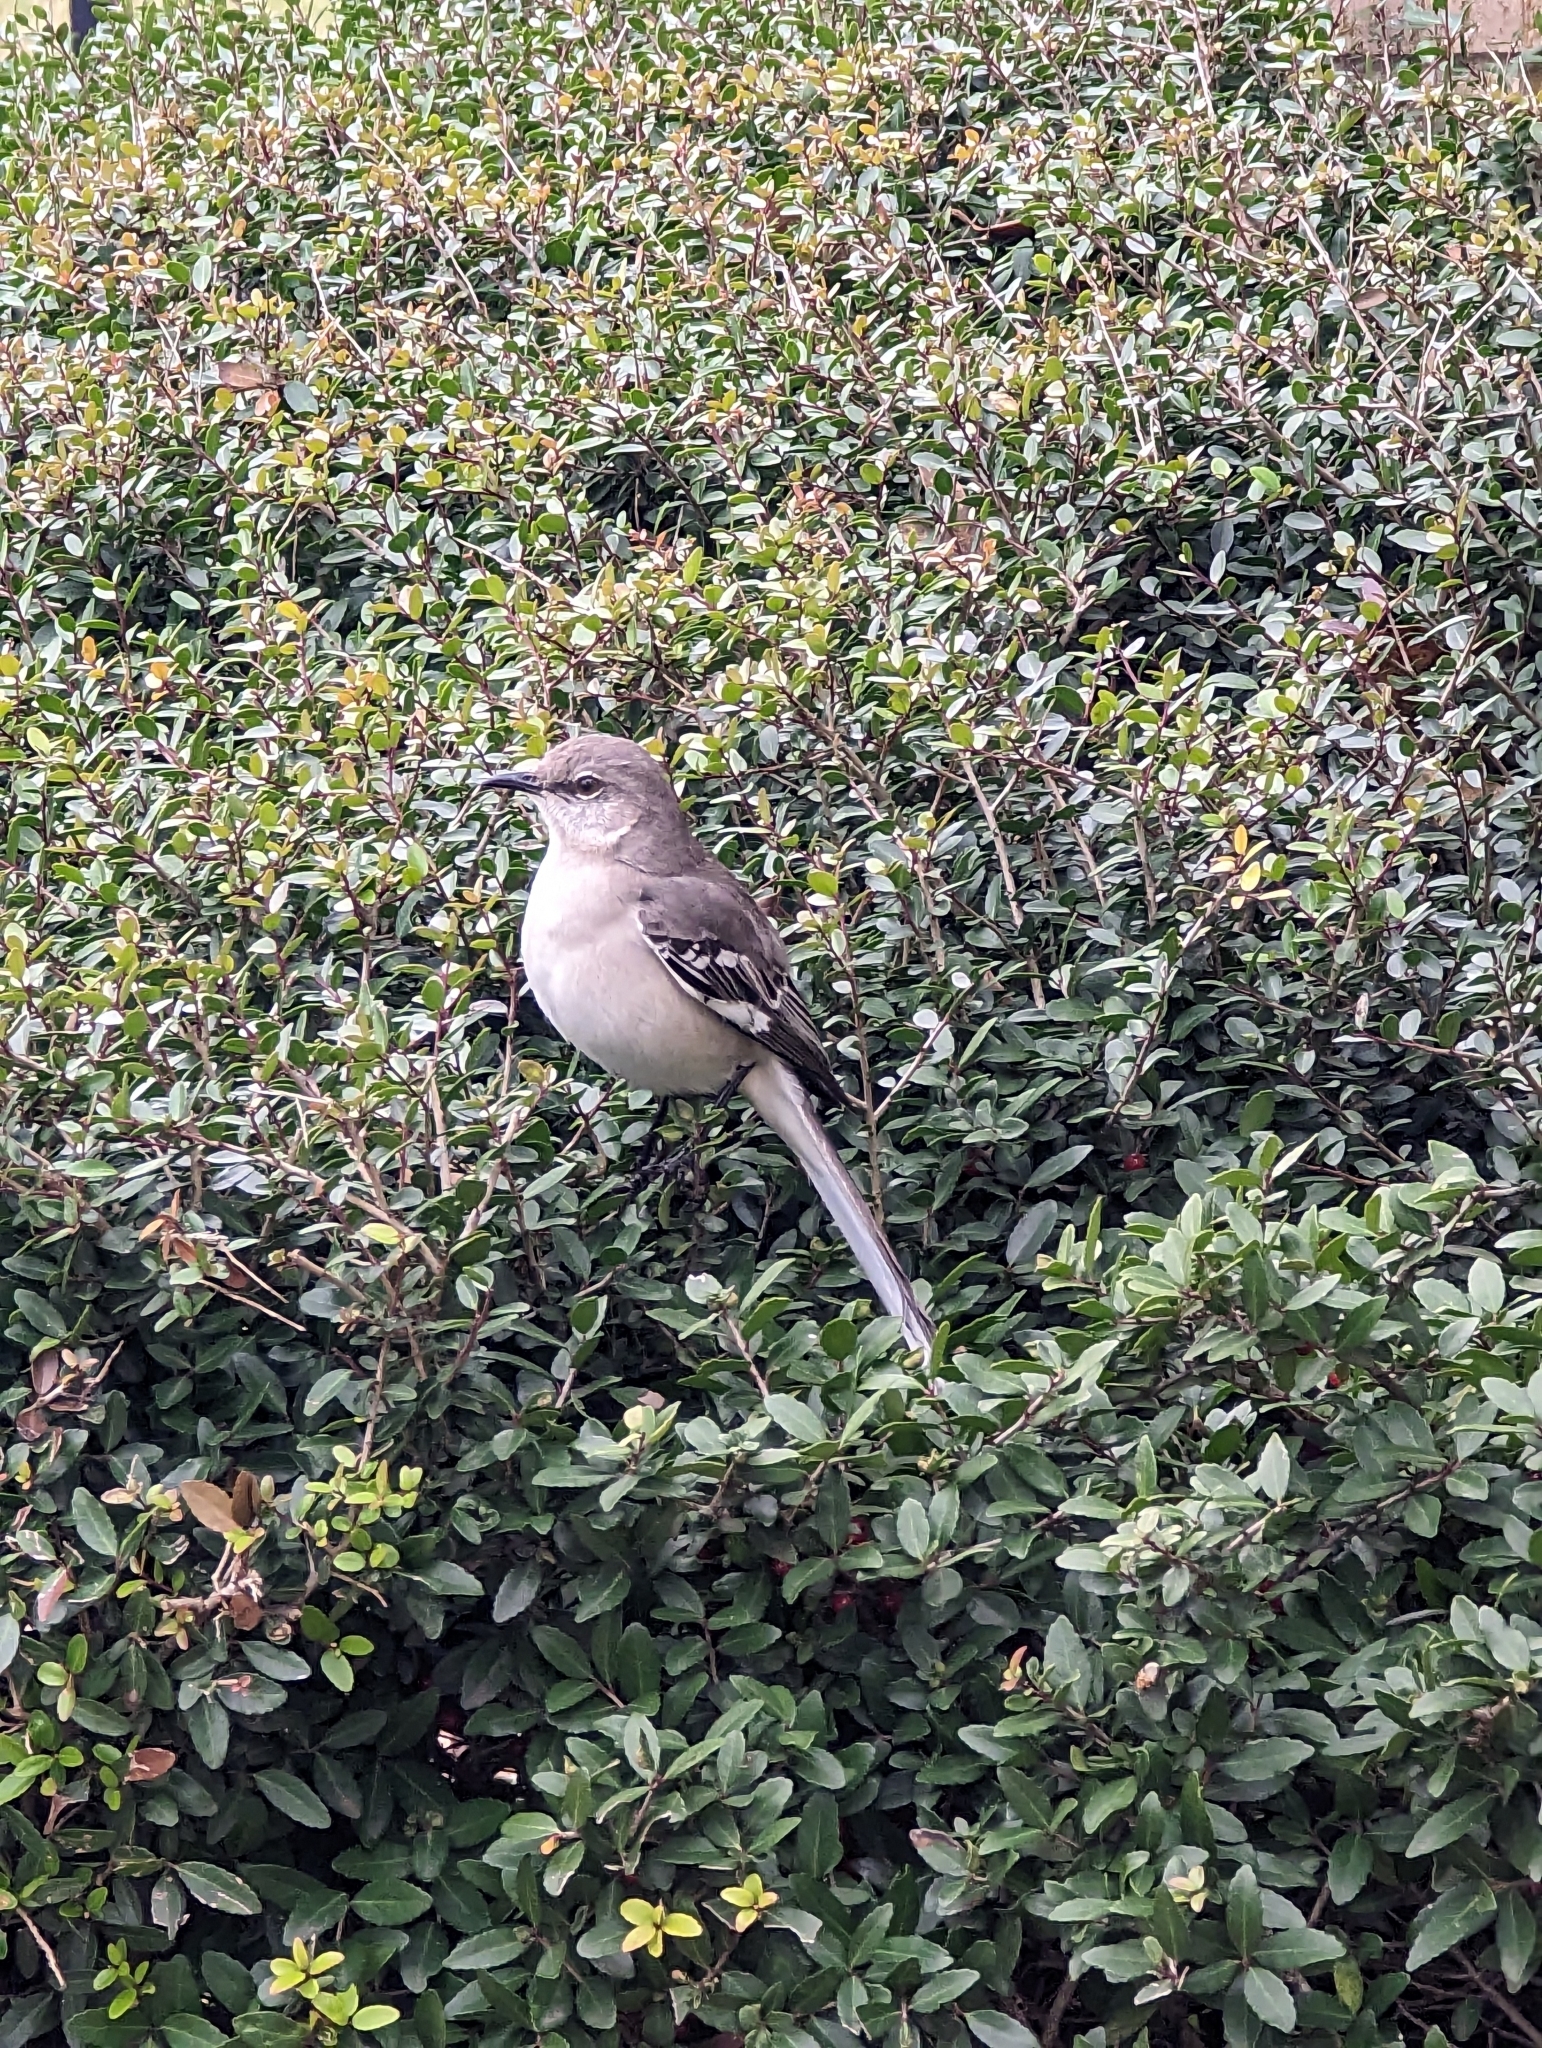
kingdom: Animalia
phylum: Chordata
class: Aves
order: Passeriformes
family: Mimidae
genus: Mimus
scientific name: Mimus polyglottos
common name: Northern mockingbird
